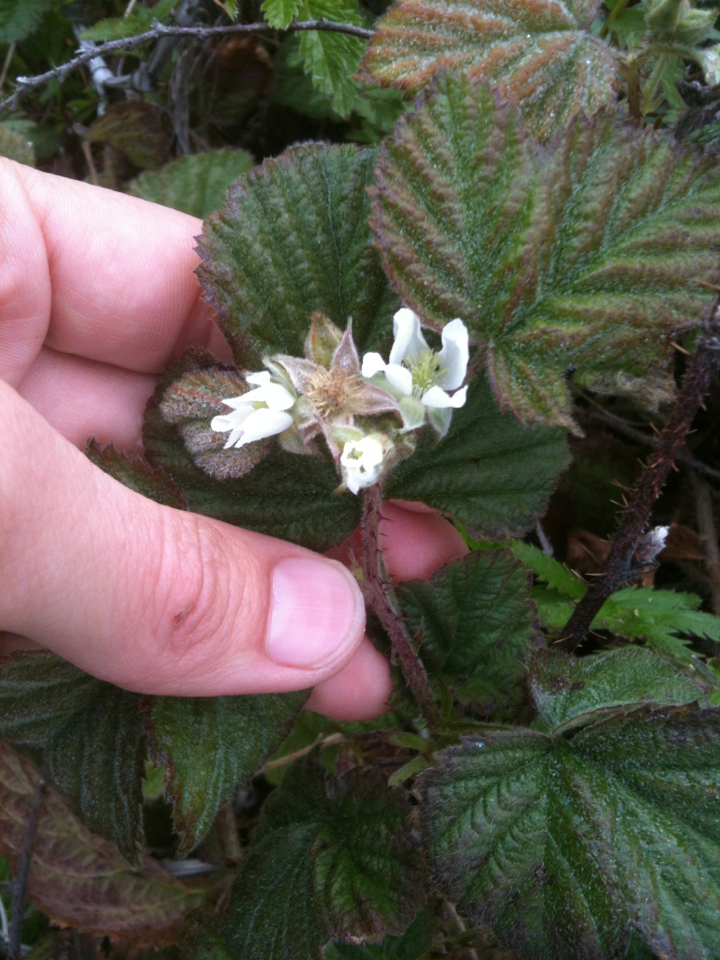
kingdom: Plantae
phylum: Tracheophyta
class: Magnoliopsida
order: Rosales
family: Rosaceae
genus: Rubus
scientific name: Rubus ursinus
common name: Pacific blackberry
